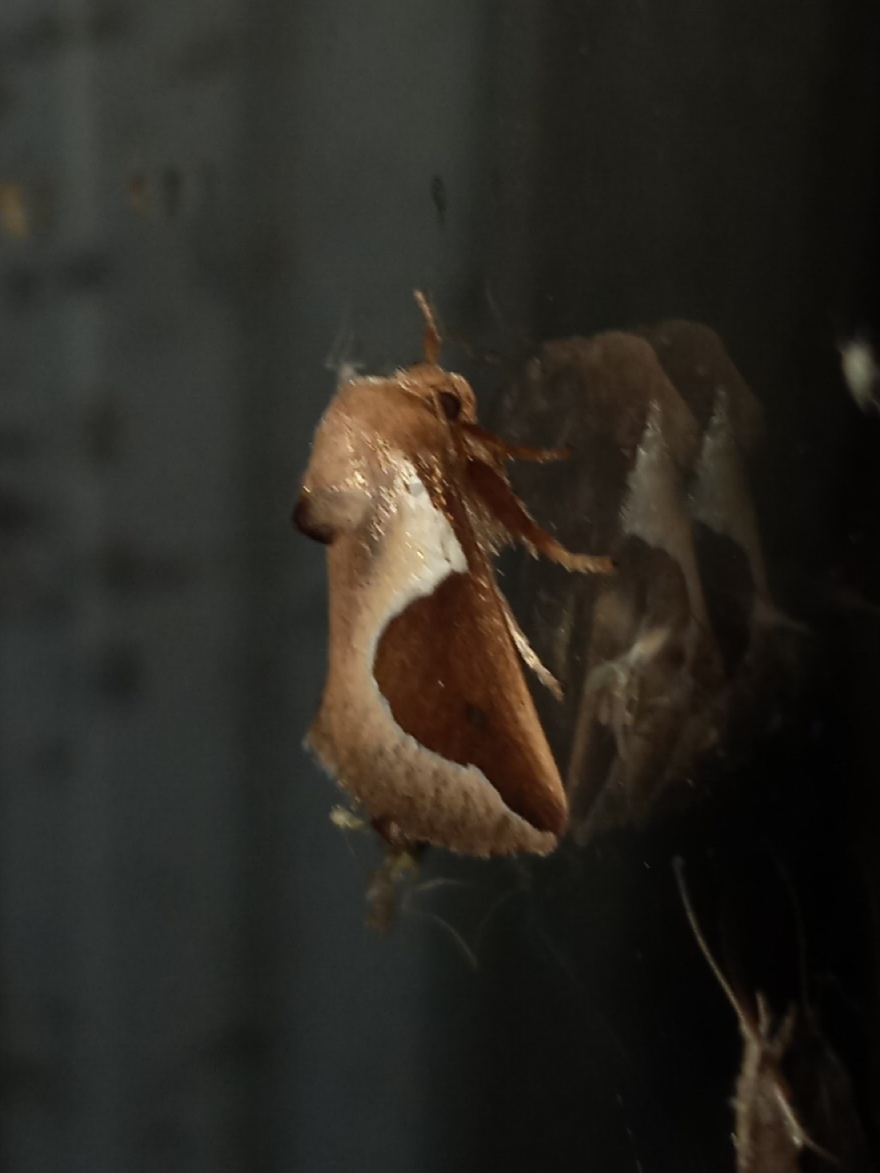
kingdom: Animalia
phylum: Arthropoda
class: Insecta
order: Lepidoptera
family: Limacodidae
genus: Prolimacodes
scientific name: Prolimacodes badia
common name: Skiff moth
